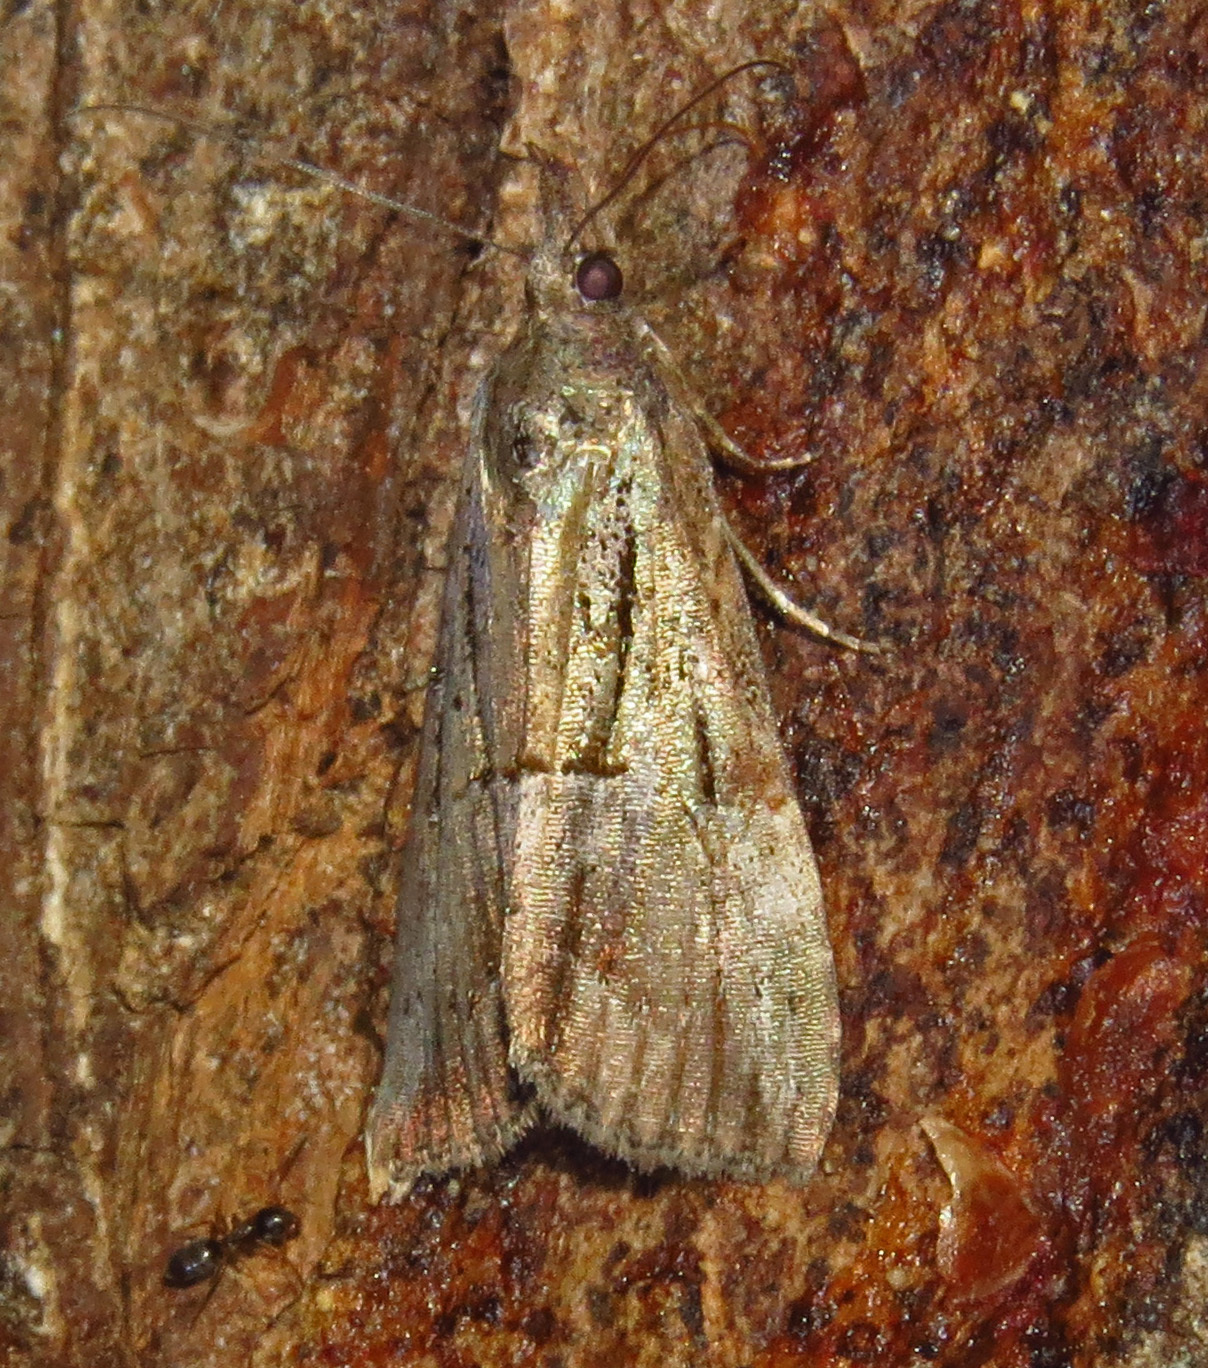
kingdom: Animalia
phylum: Arthropoda
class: Insecta
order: Lepidoptera
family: Erebidae
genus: Hypena
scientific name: Hypena scabra
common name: Green cloverworm
